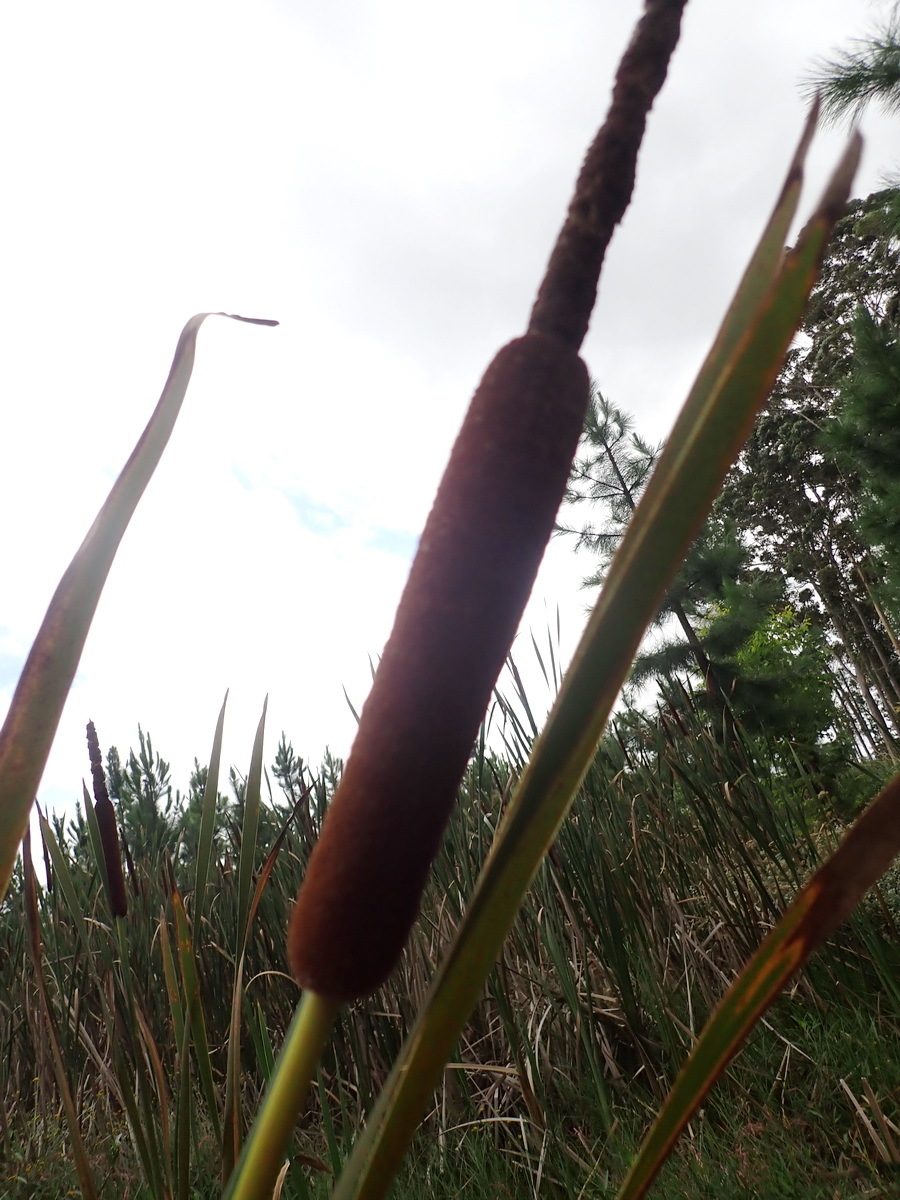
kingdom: Plantae
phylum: Tracheophyta
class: Liliopsida
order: Poales
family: Typhaceae
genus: Typha
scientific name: Typha capensis
